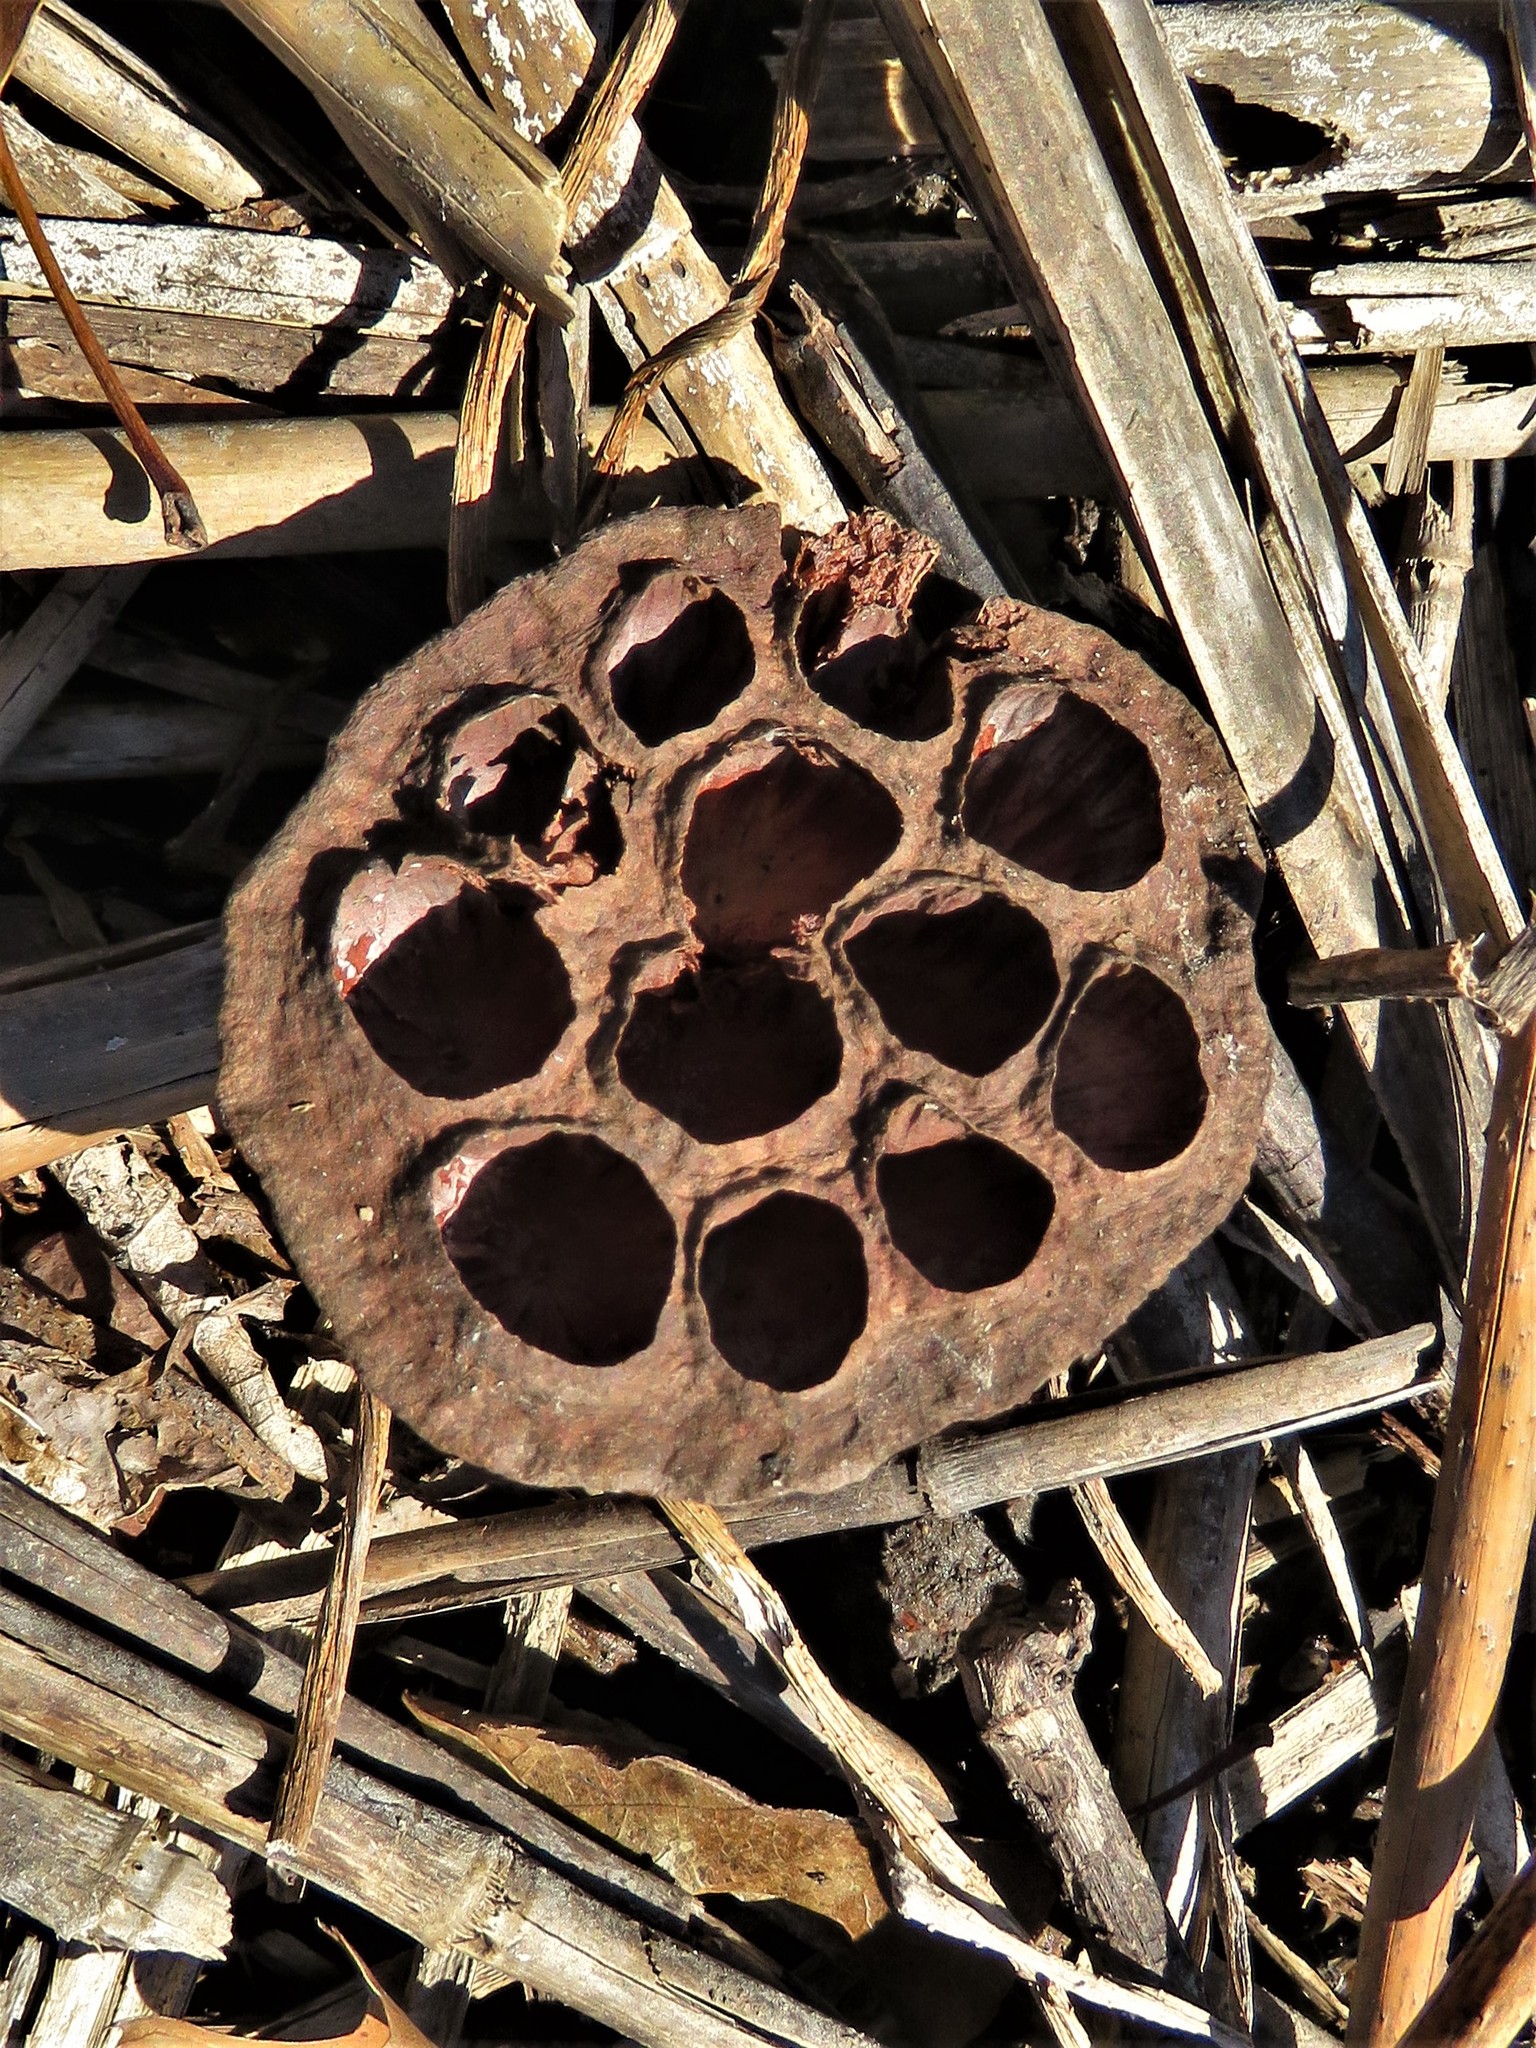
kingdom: Plantae
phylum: Tracheophyta
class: Magnoliopsida
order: Proteales
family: Nelumbonaceae
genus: Nelumbo
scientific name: Nelumbo lutea
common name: American lotus
